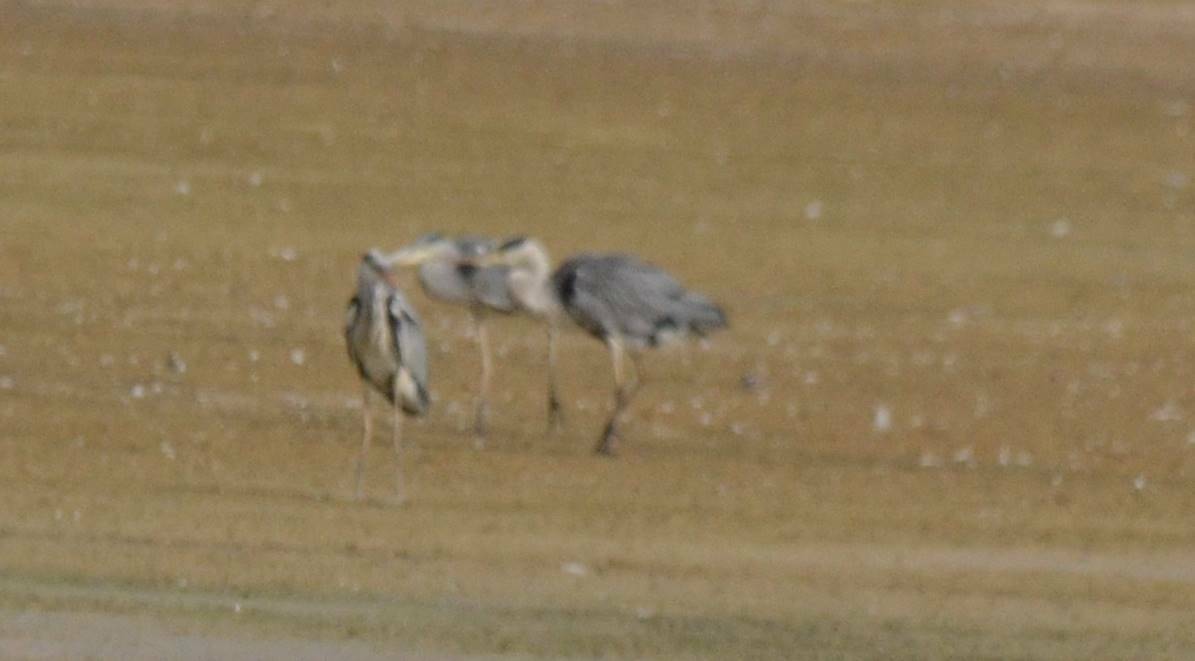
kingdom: Animalia
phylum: Chordata
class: Aves
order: Pelecaniformes
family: Ardeidae
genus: Ardea
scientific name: Ardea cinerea
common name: Grey heron
